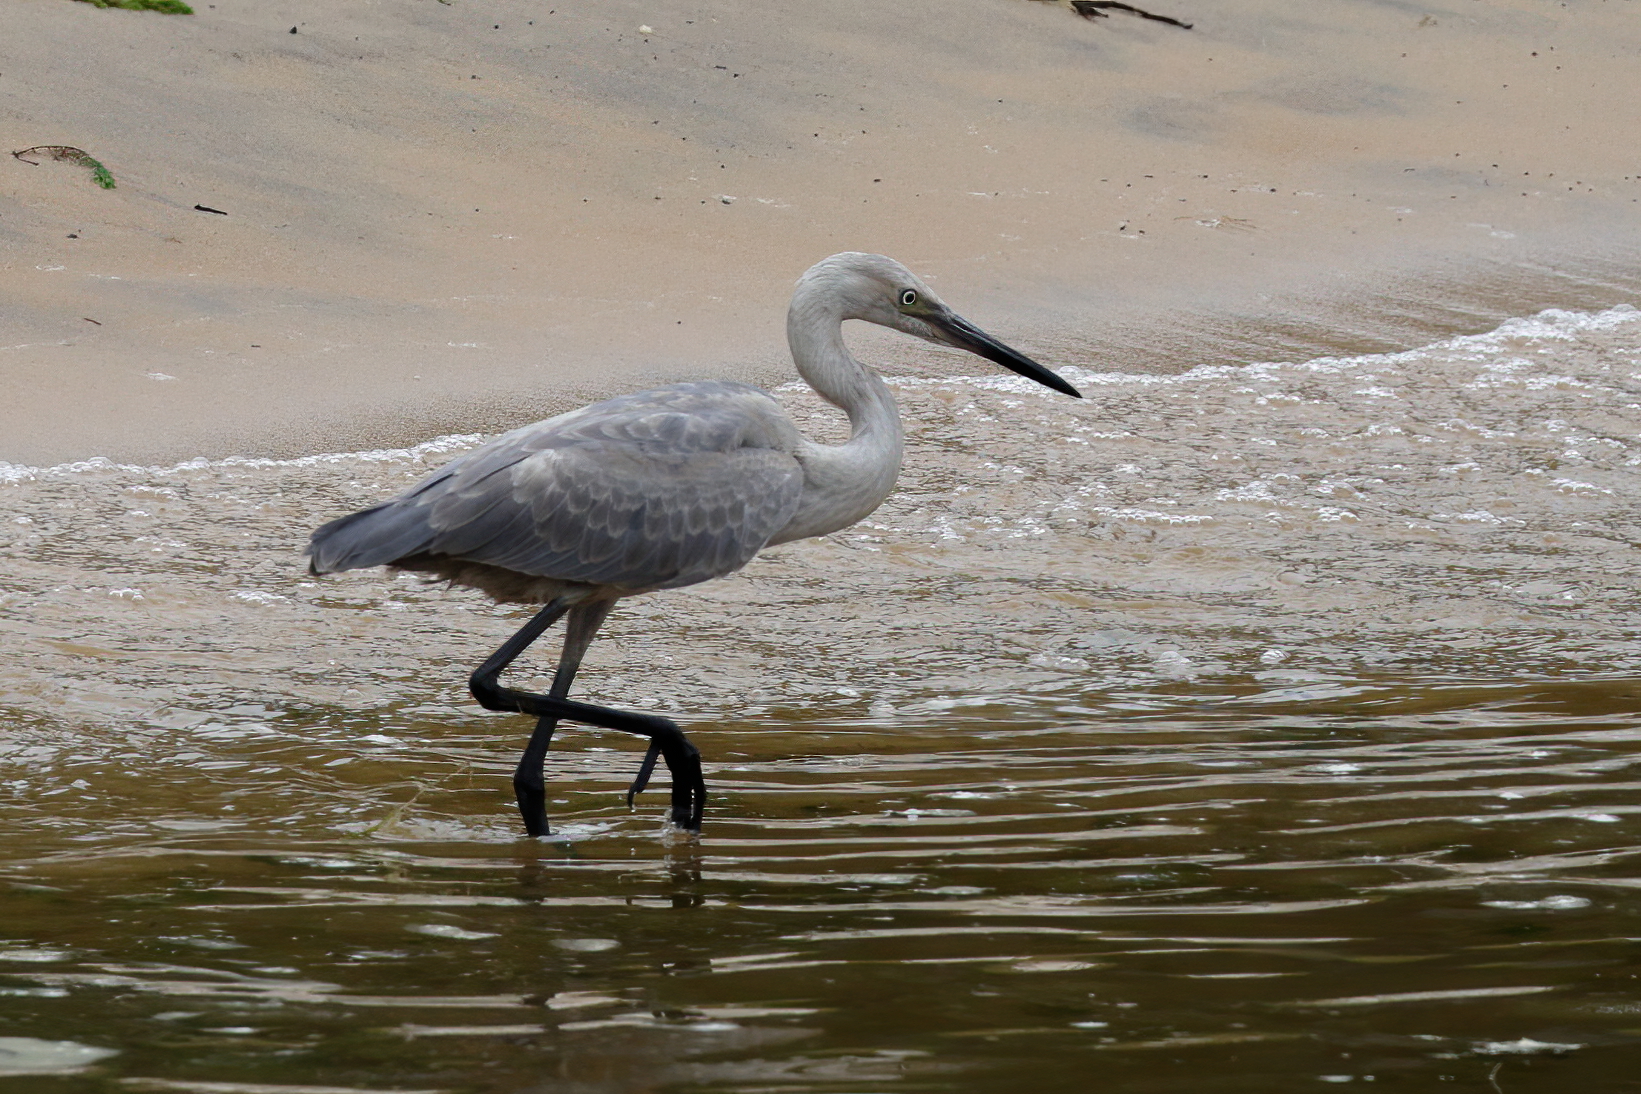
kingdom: Animalia
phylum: Chordata
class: Aves
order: Pelecaniformes
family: Ardeidae
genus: Egretta
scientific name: Egretta rufescens
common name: Reddish egret
